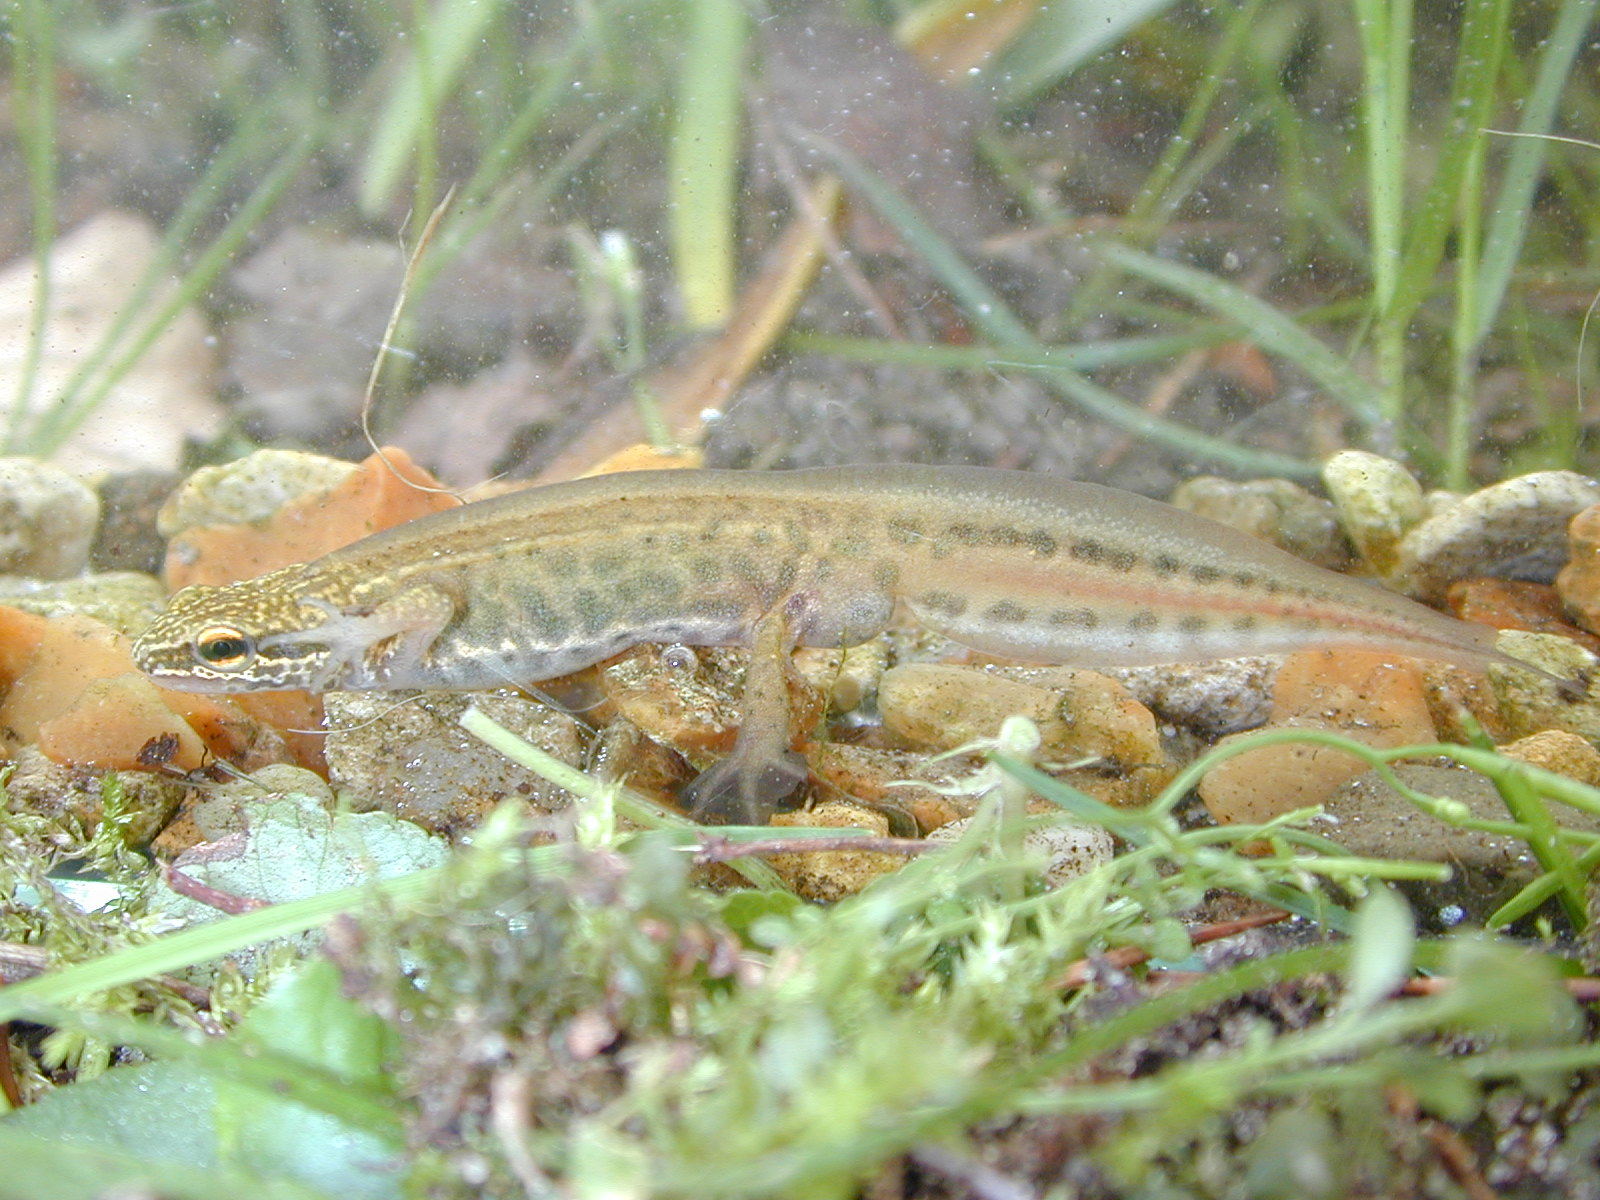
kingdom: Animalia
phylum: Chordata
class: Amphibia
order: Caudata
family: Salamandridae
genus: Lissotriton
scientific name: Lissotriton helveticus
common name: Palmate newt
